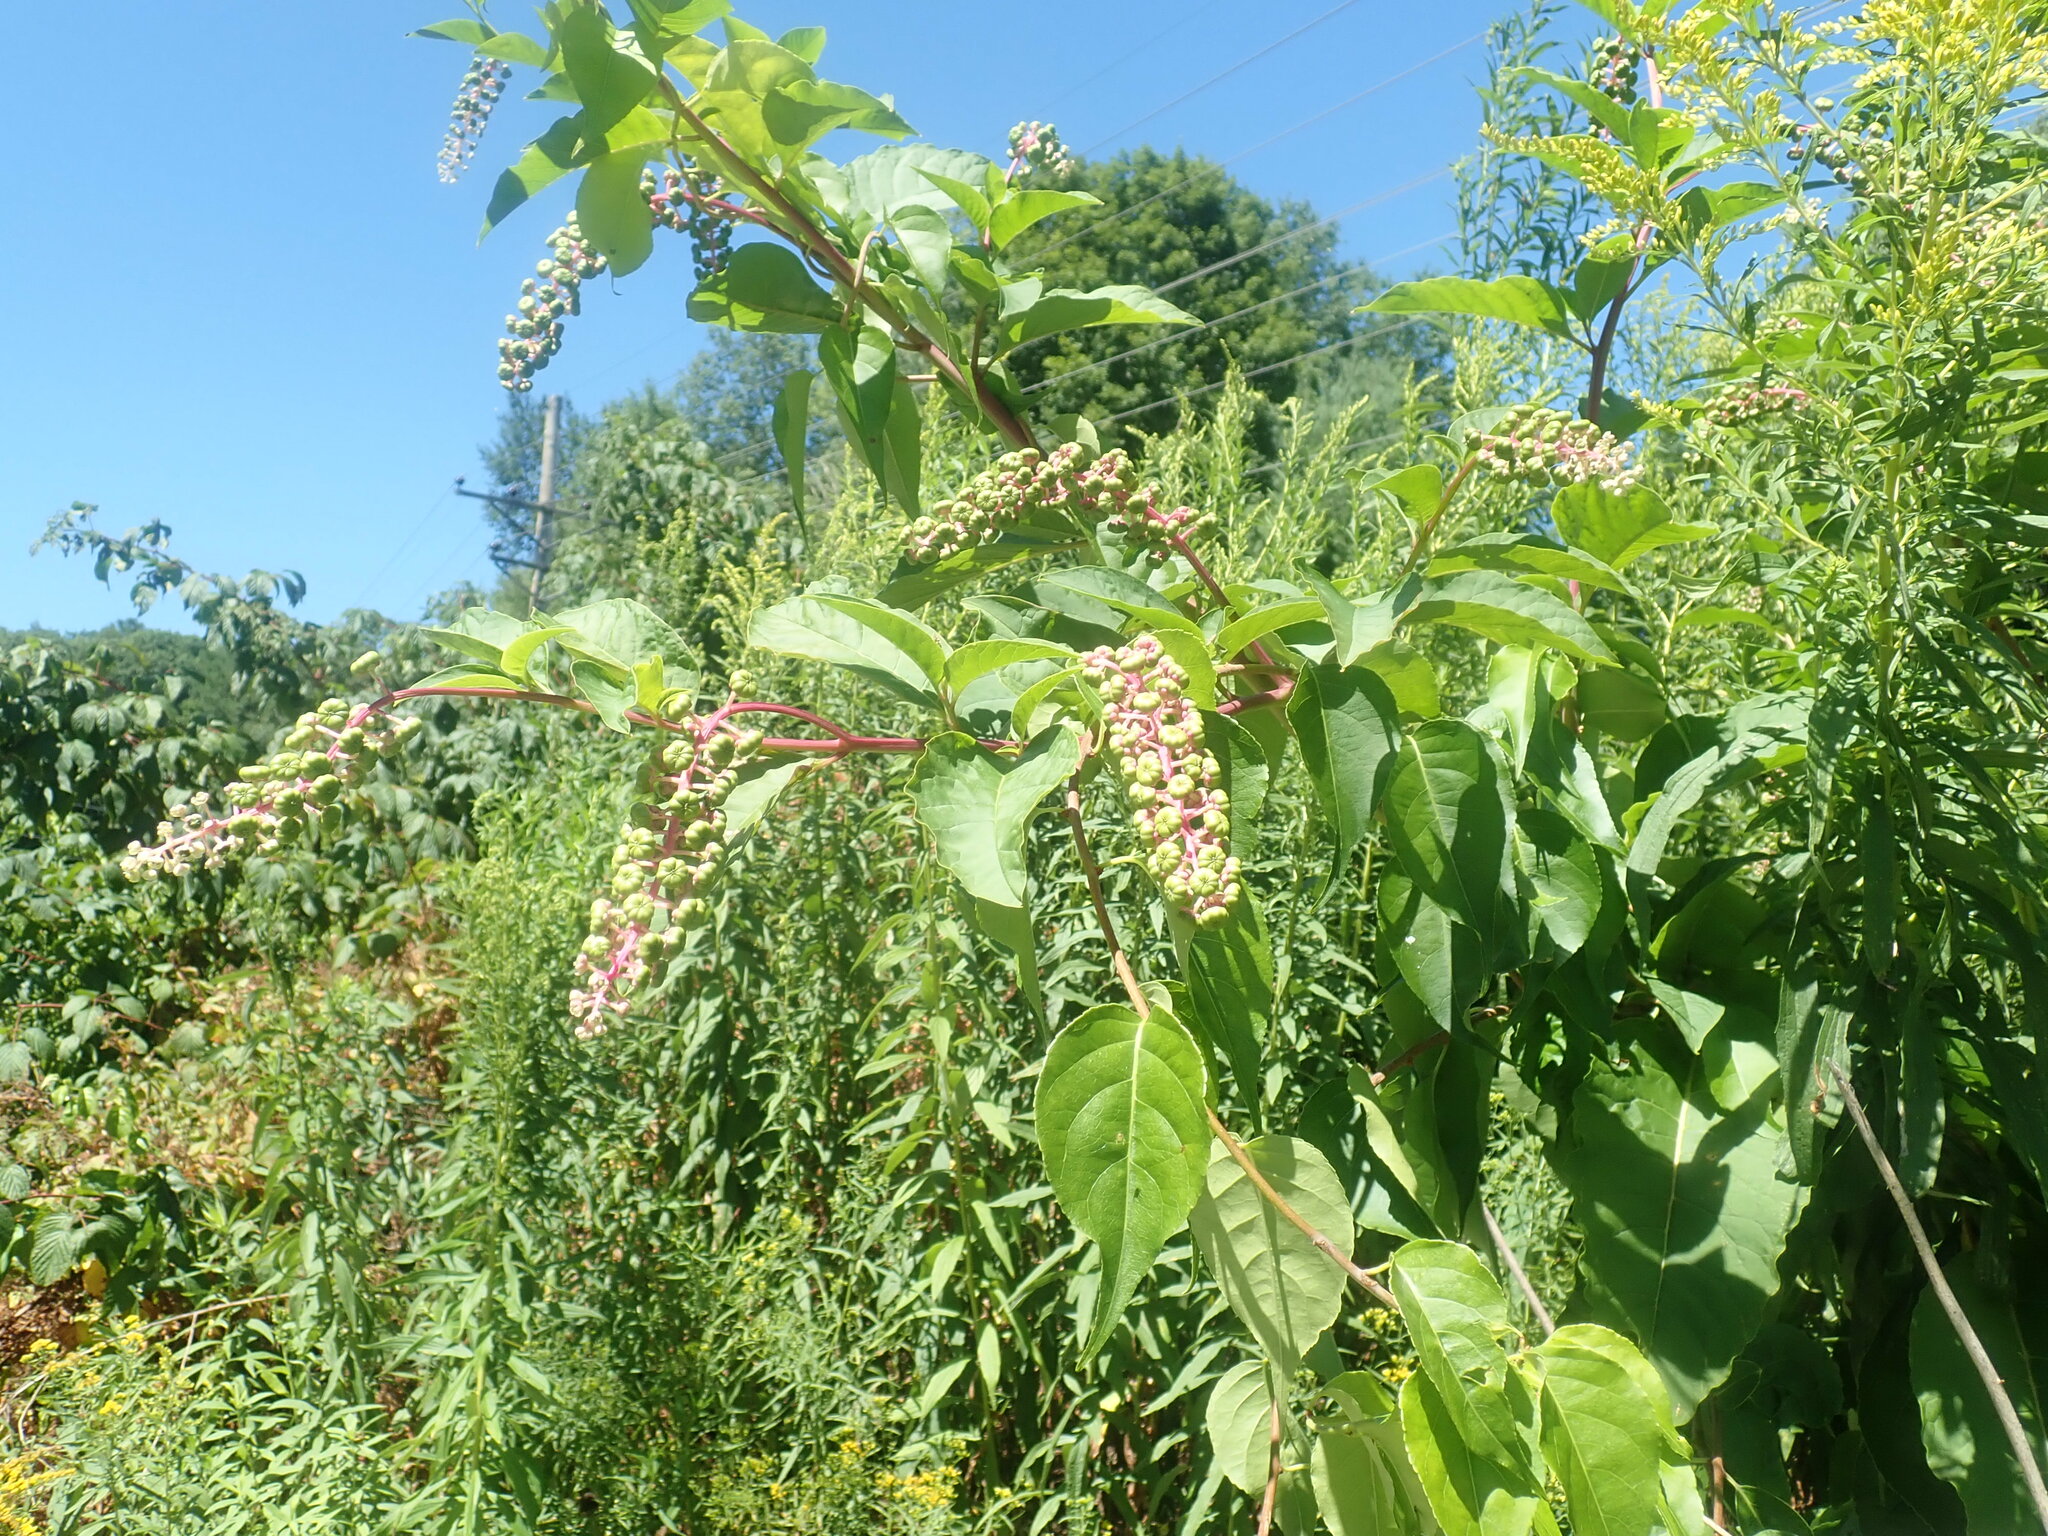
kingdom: Plantae
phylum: Tracheophyta
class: Magnoliopsida
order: Caryophyllales
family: Phytolaccaceae
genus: Phytolacca
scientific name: Phytolacca americana
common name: American pokeweed
